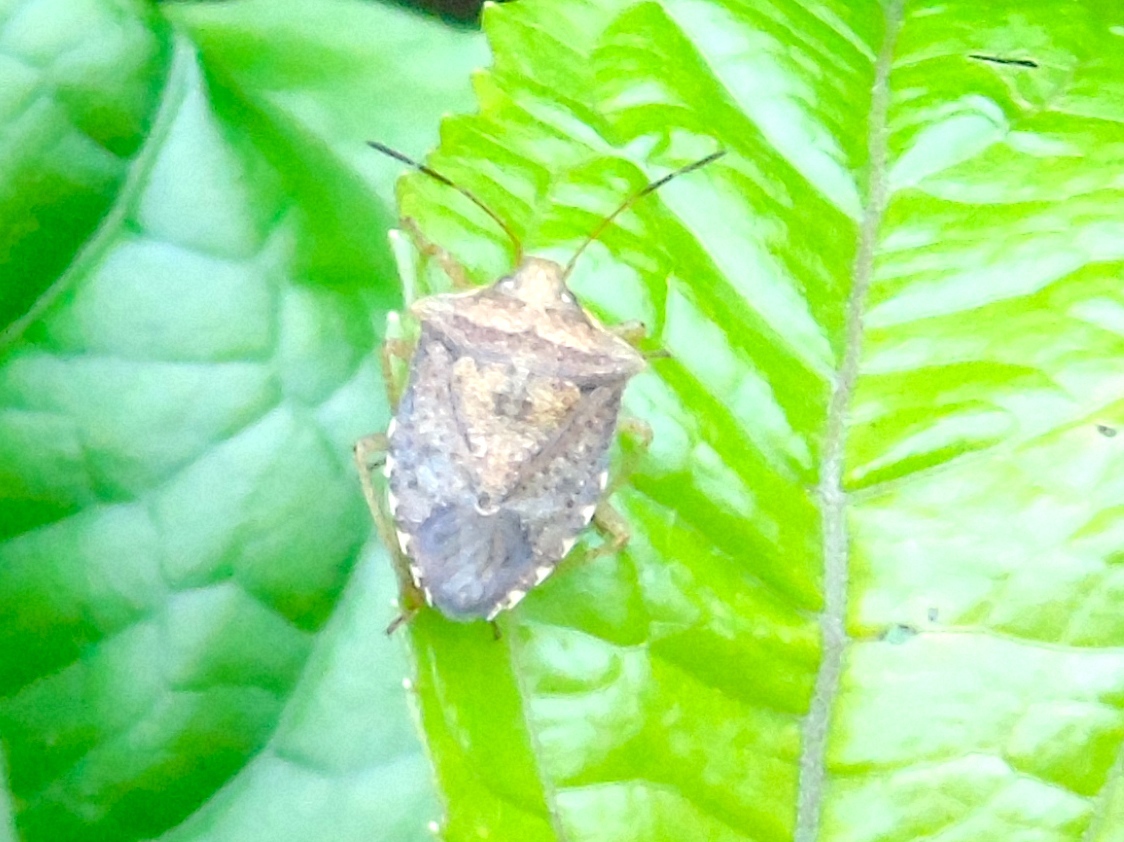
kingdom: Animalia
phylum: Arthropoda
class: Insecta
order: Hemiptera
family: Pentatomidae
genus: Euschistus
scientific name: Euschistus
